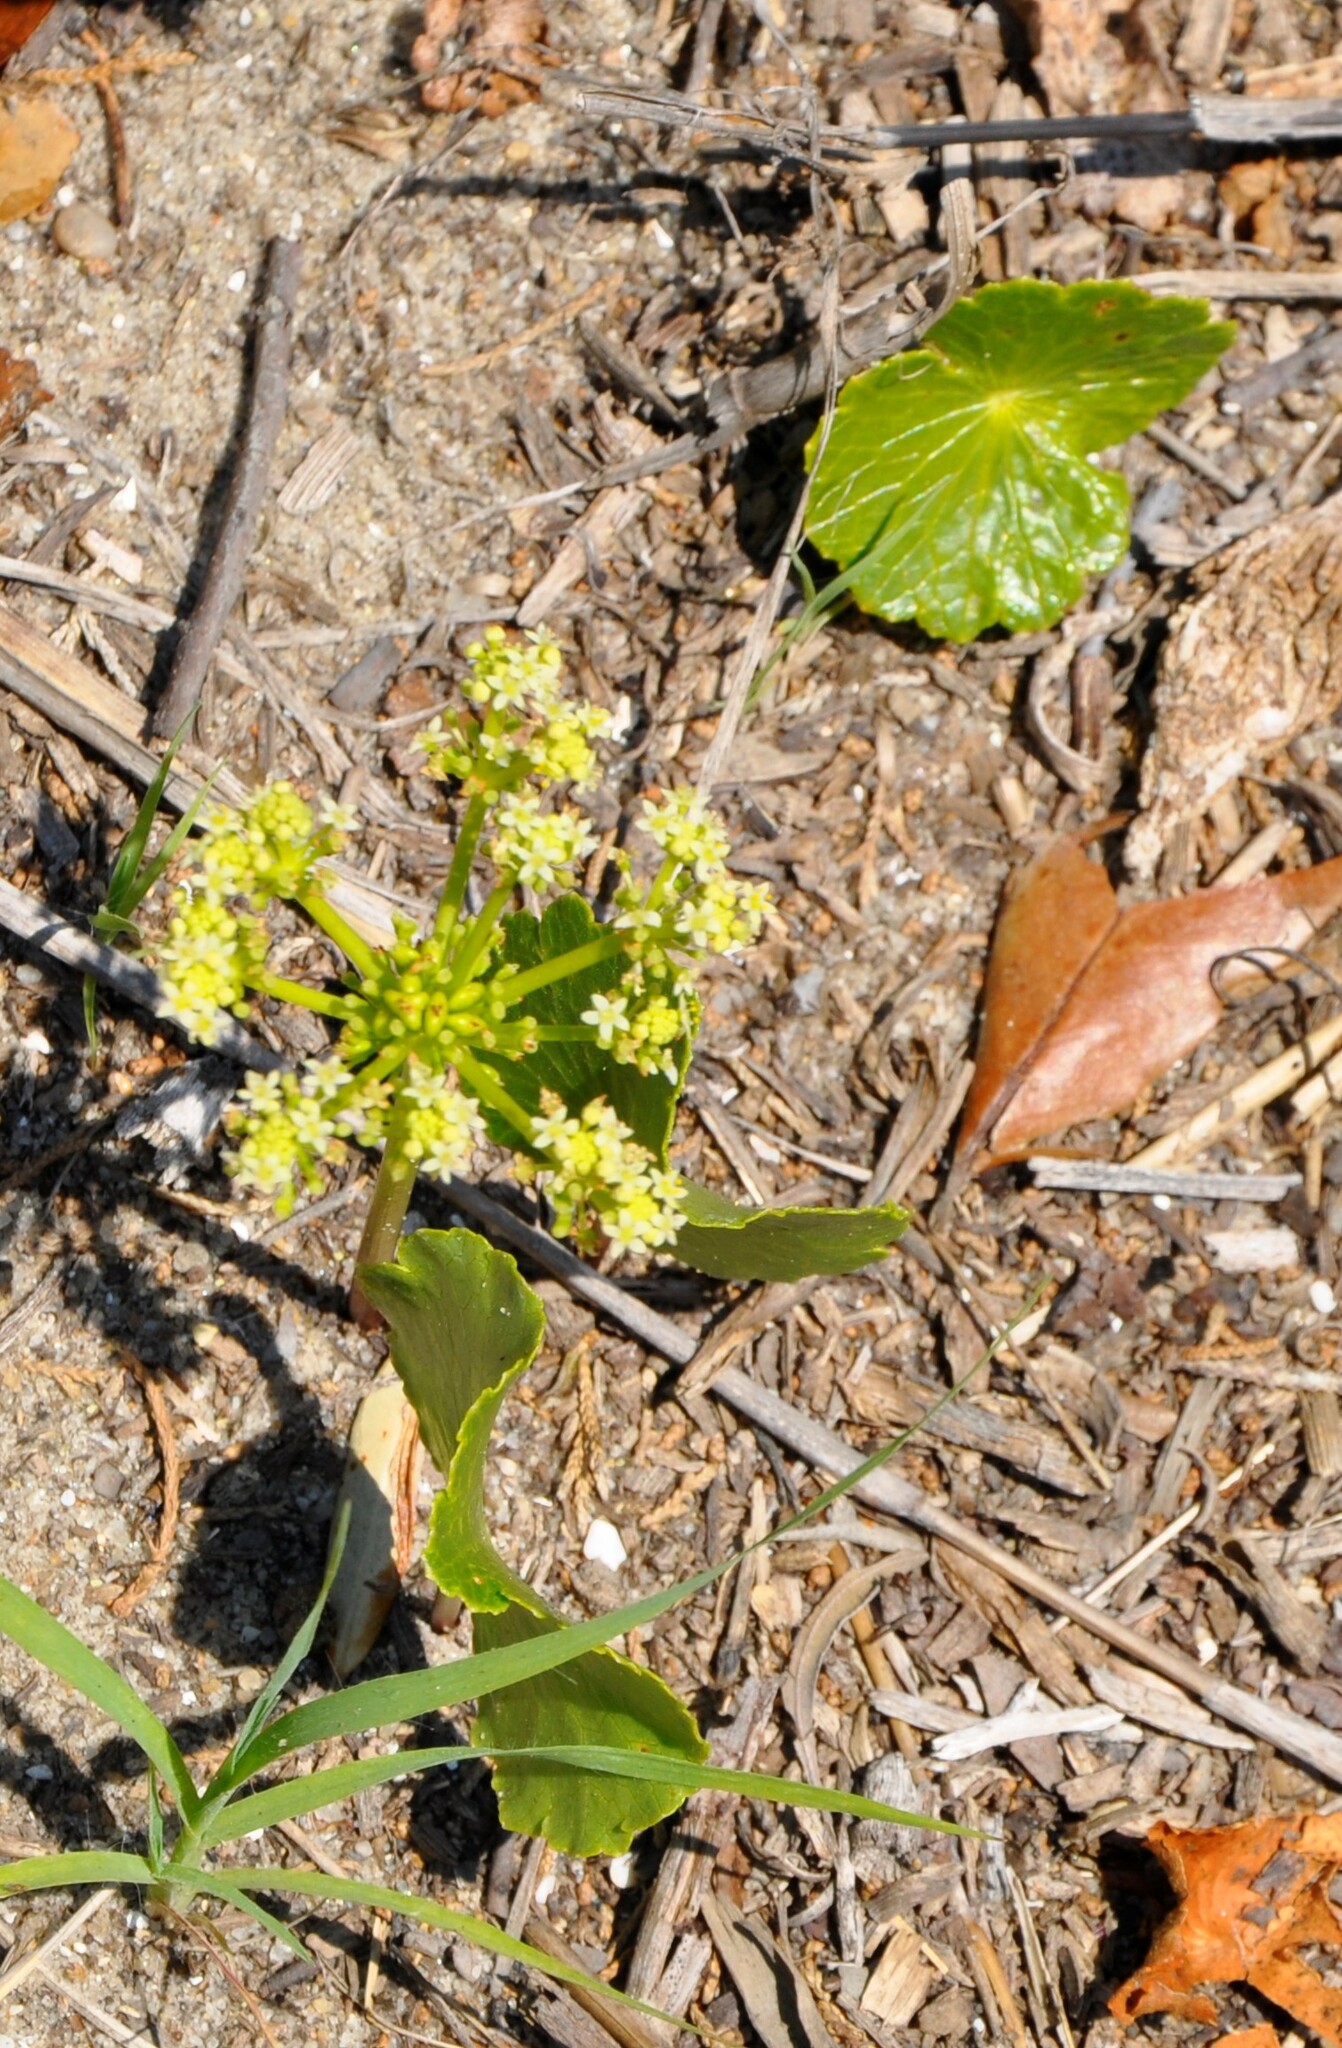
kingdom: Plantae
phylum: Tracheophyta
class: Magnoliopsida
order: Apiales
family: Araliaceae
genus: Hydrocotyle
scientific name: Hydrocotyle bonariensis
